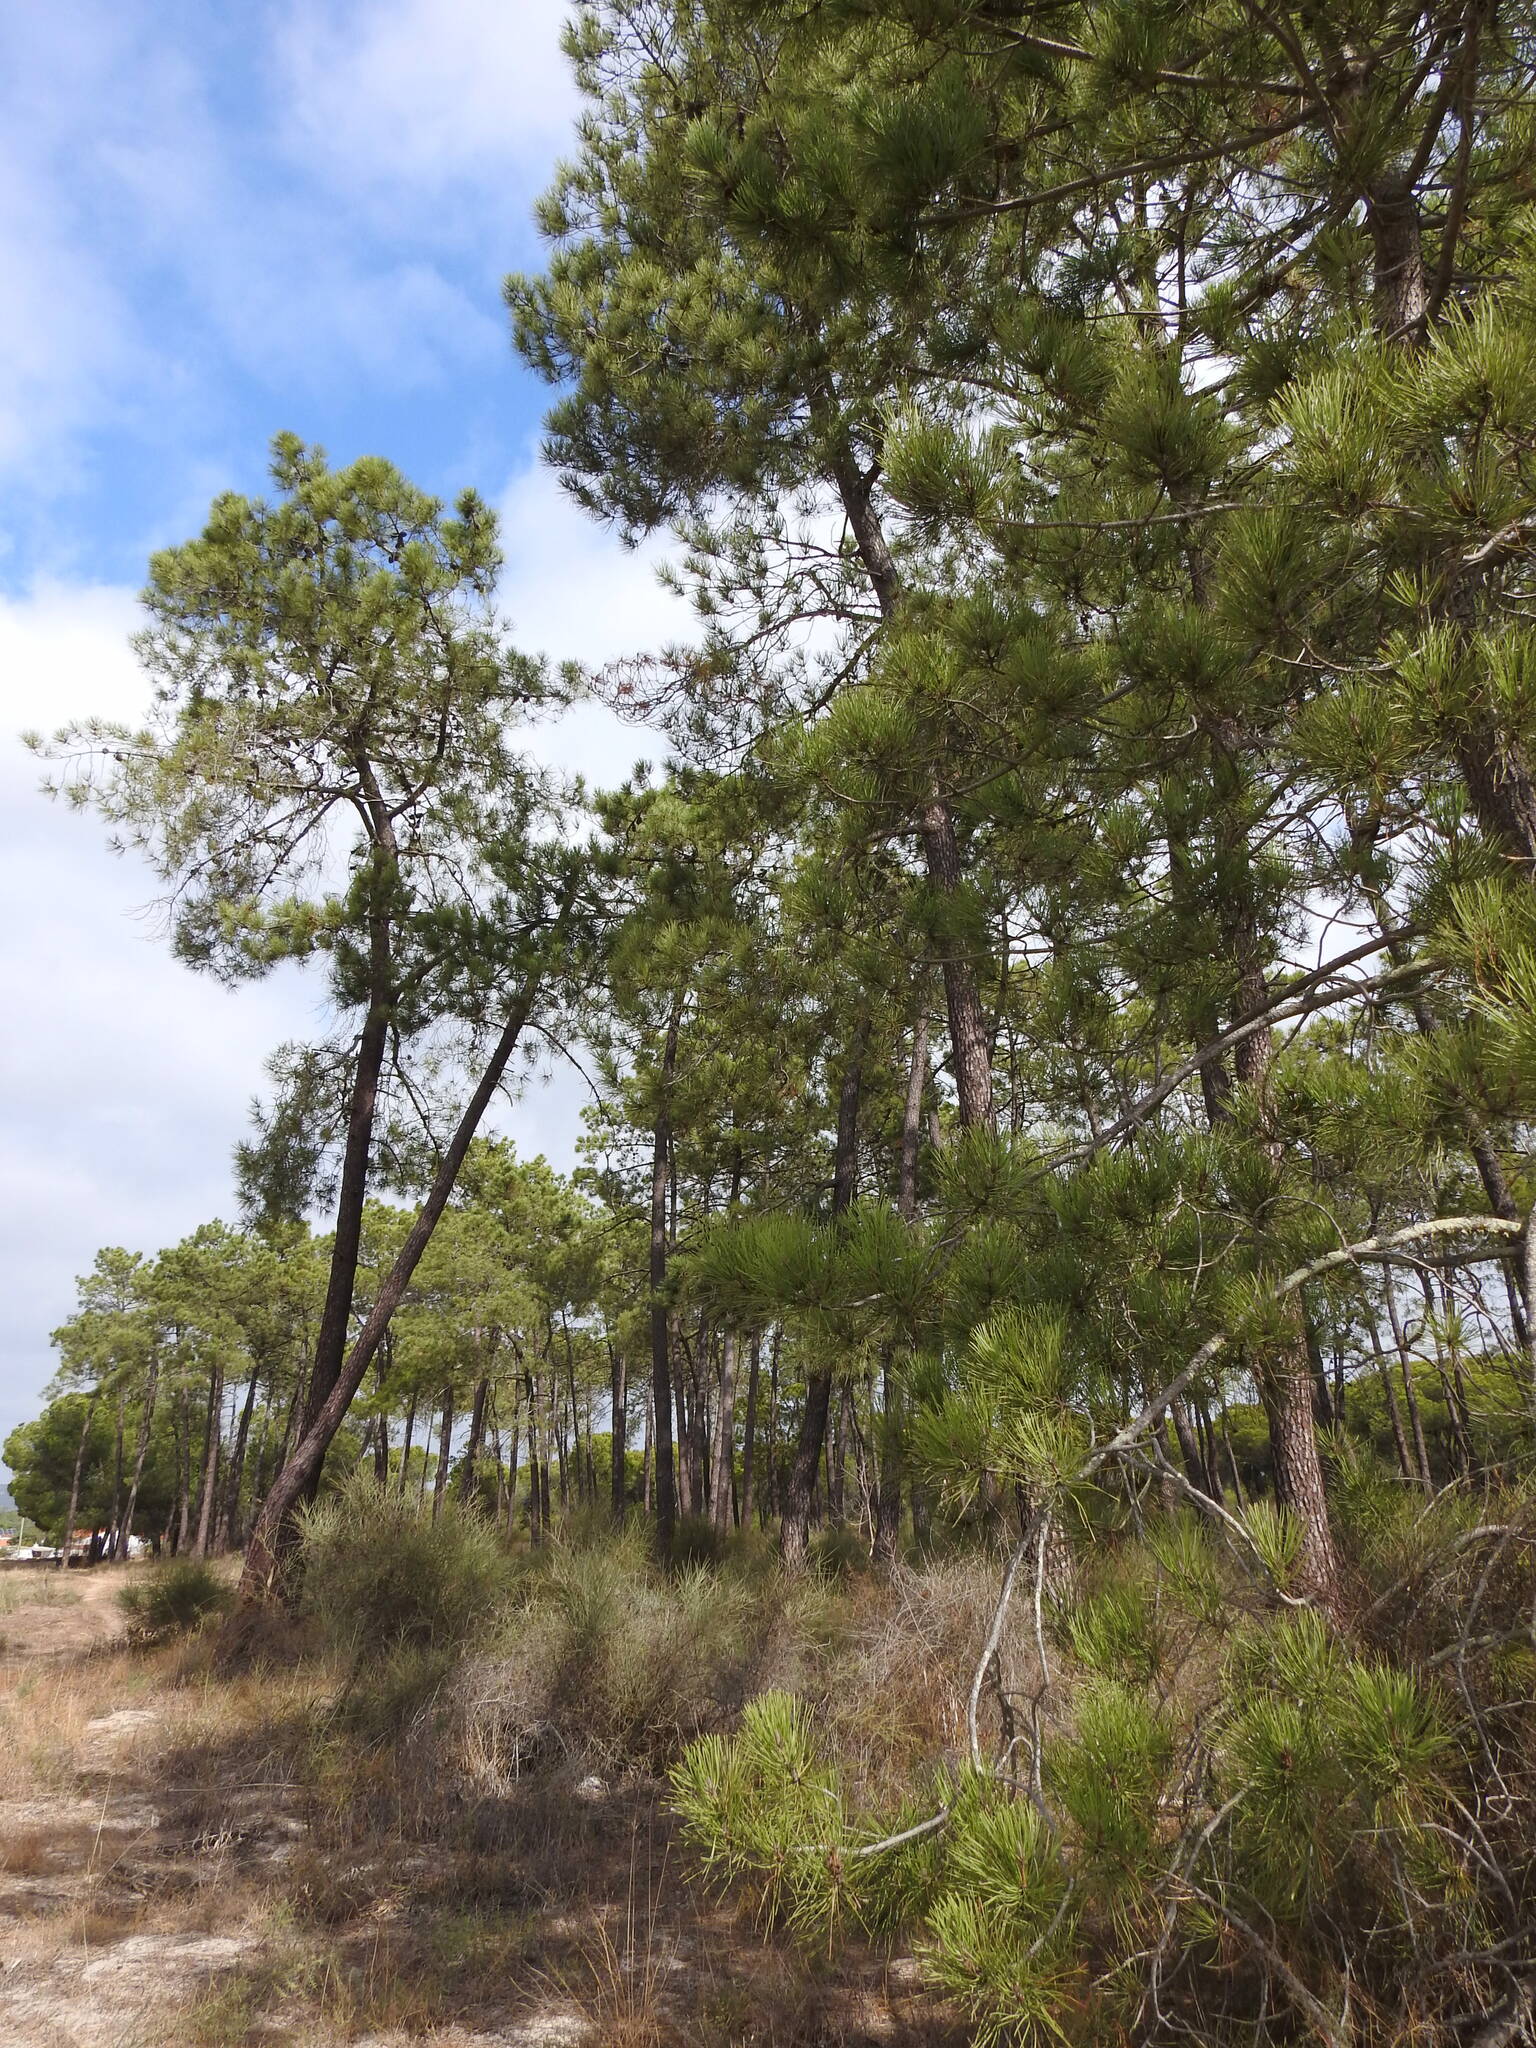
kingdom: Plantae
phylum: Tracheophyta
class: Pinopsida
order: Pinales
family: Pinaceae
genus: Pinus
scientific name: Pinus pinaster
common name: Maritime pine
